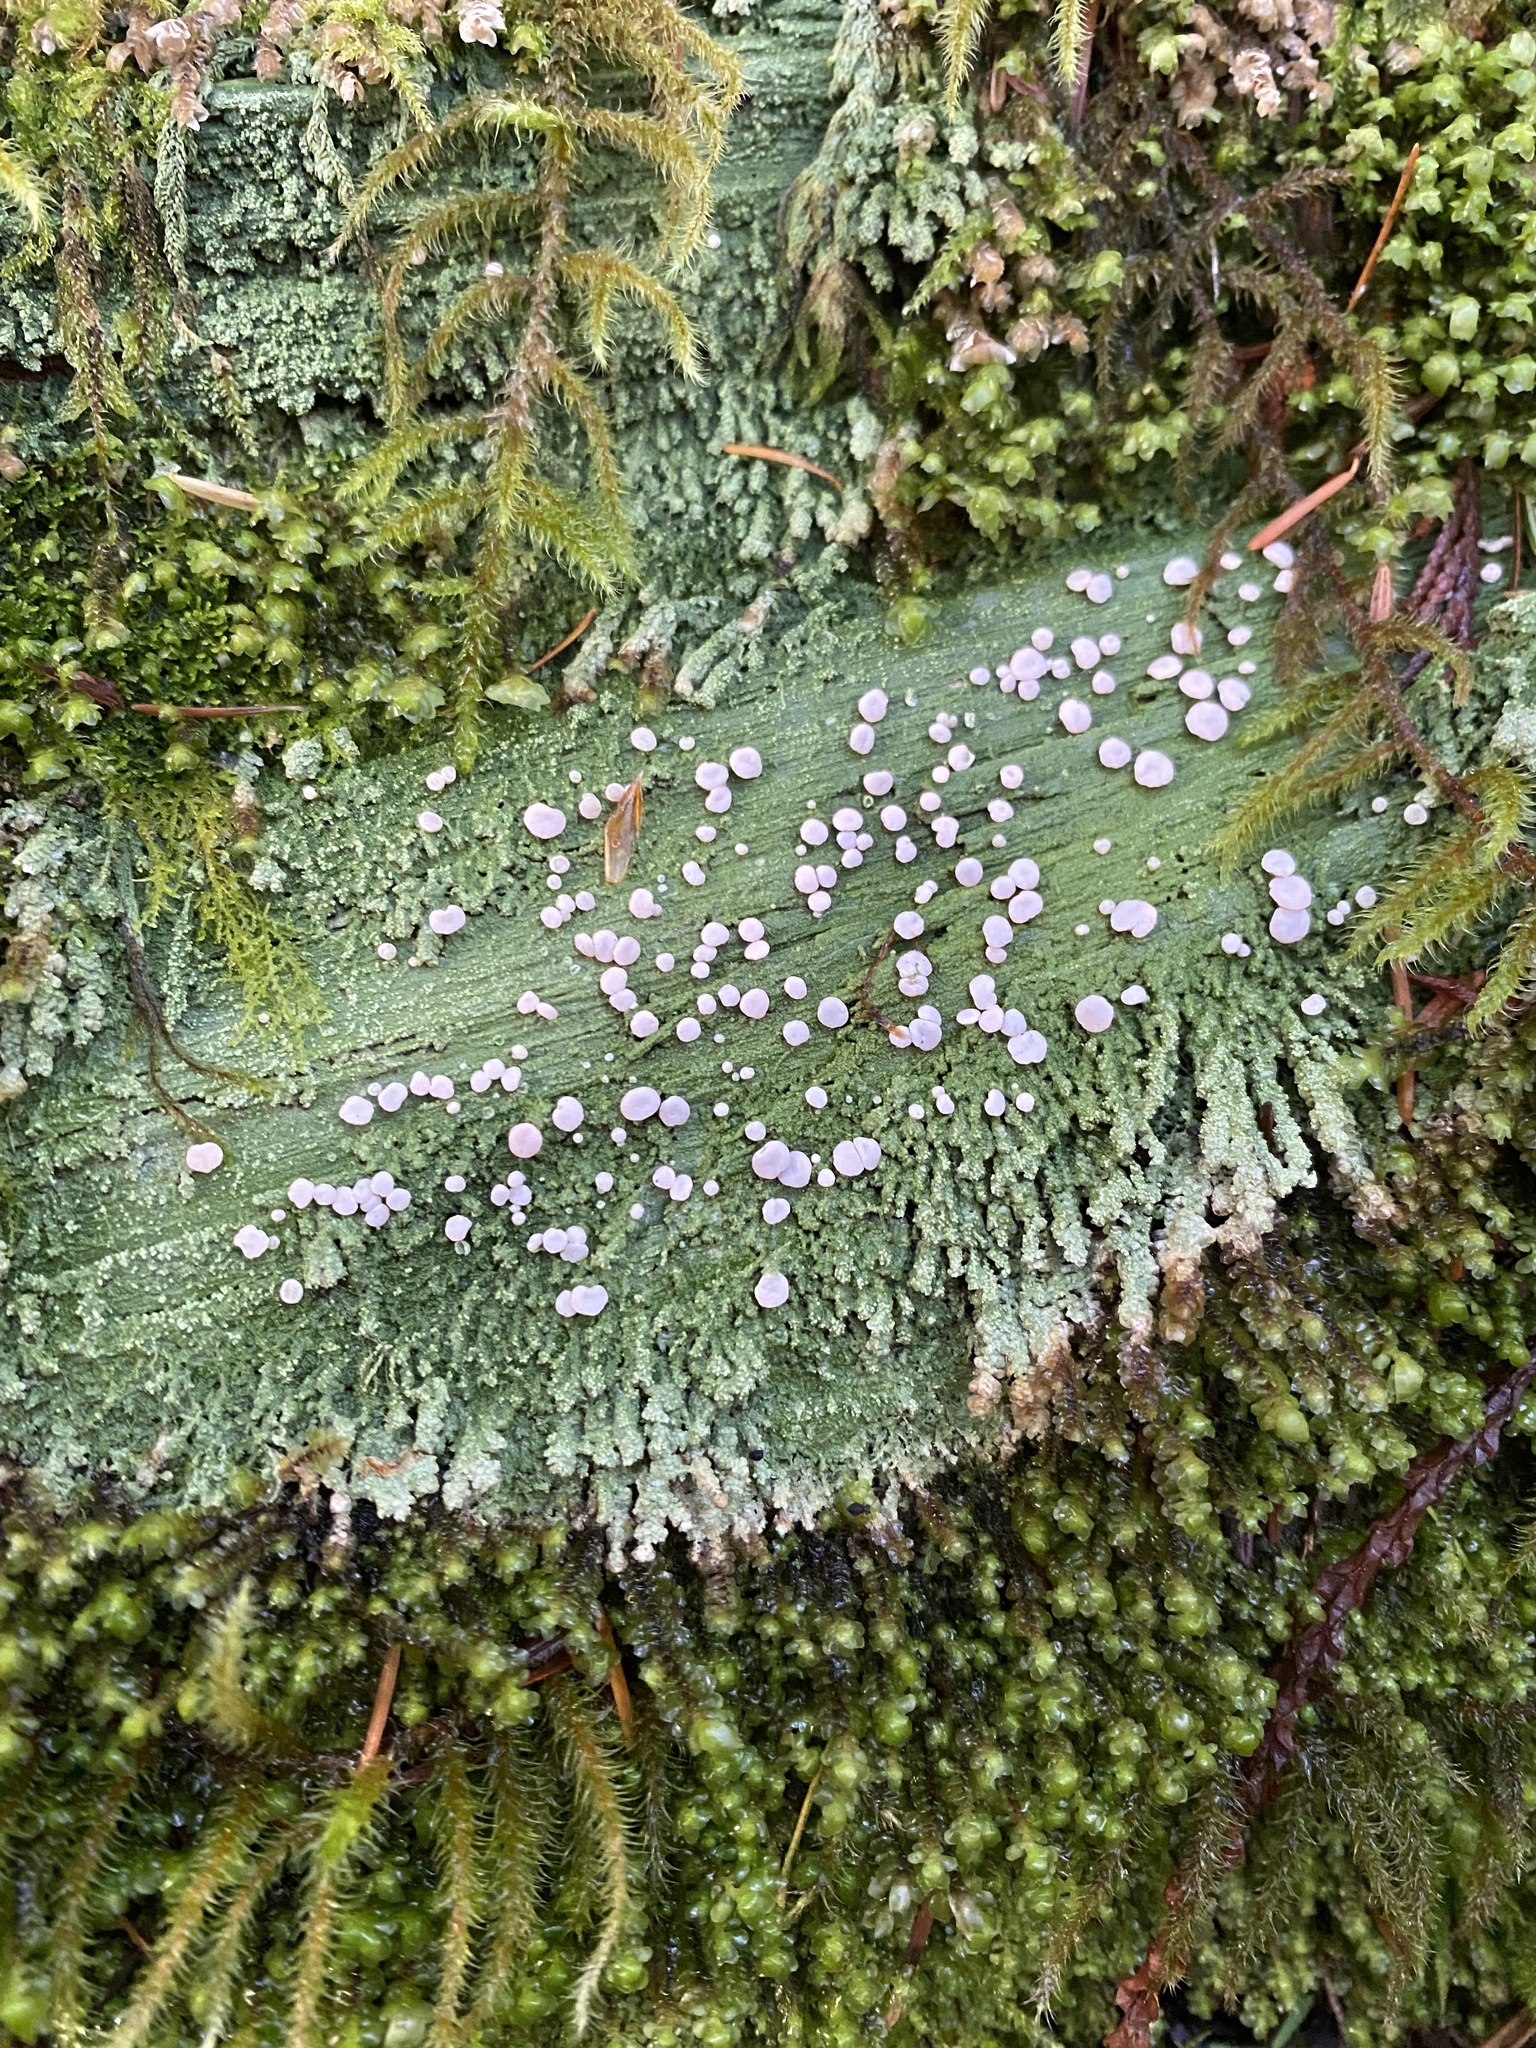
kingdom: Fungi
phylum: Ascomycota
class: Lecanoromycetes
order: Pertusariales
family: Icmadophilaceae
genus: Icmadophila
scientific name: Icmadophila ericetorum
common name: Candy lichen
